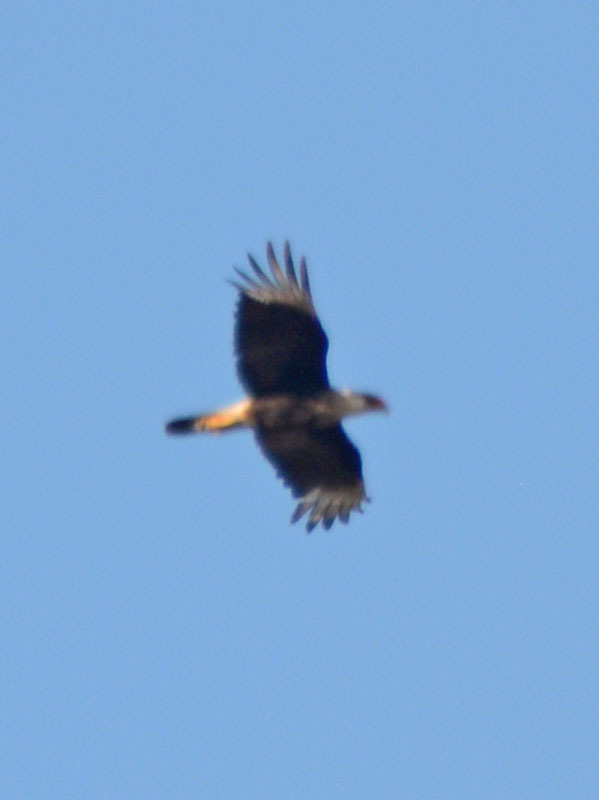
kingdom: Animalia
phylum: Chordata
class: Aves
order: Falconiformes
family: Falconidae
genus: Caracara
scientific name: Caracara plancus
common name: Southern caracara
